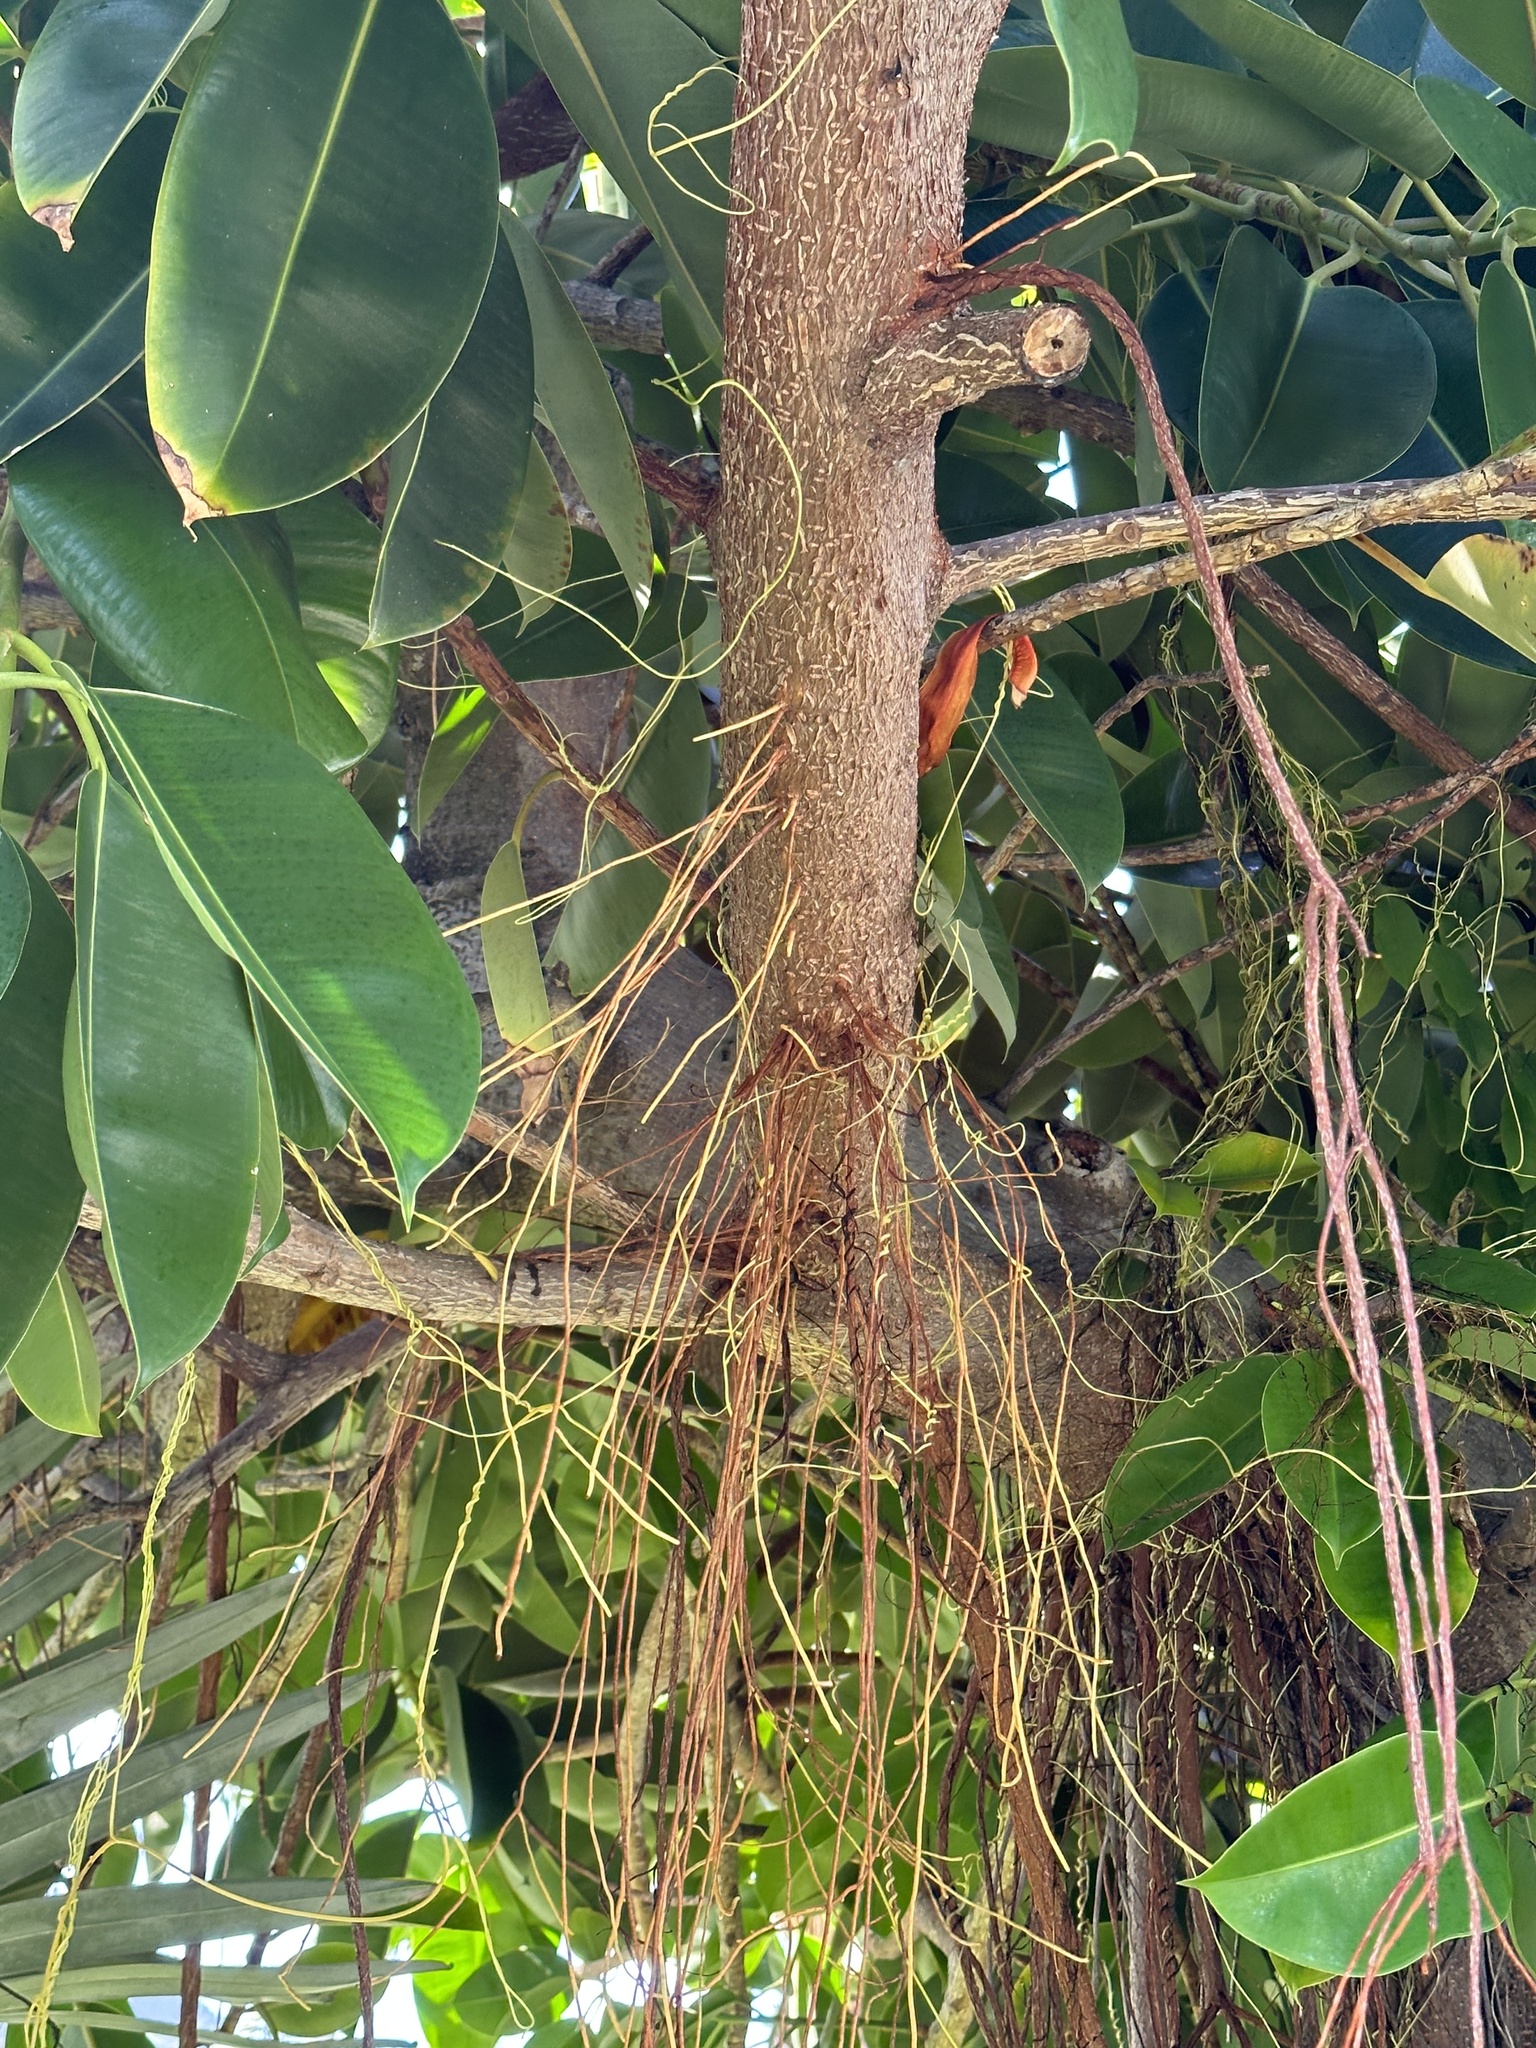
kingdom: Plantae
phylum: Tracheophyta
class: Magnoliopsida
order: Rosales
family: Moraceae
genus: Ficus
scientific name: Ficus elastica
